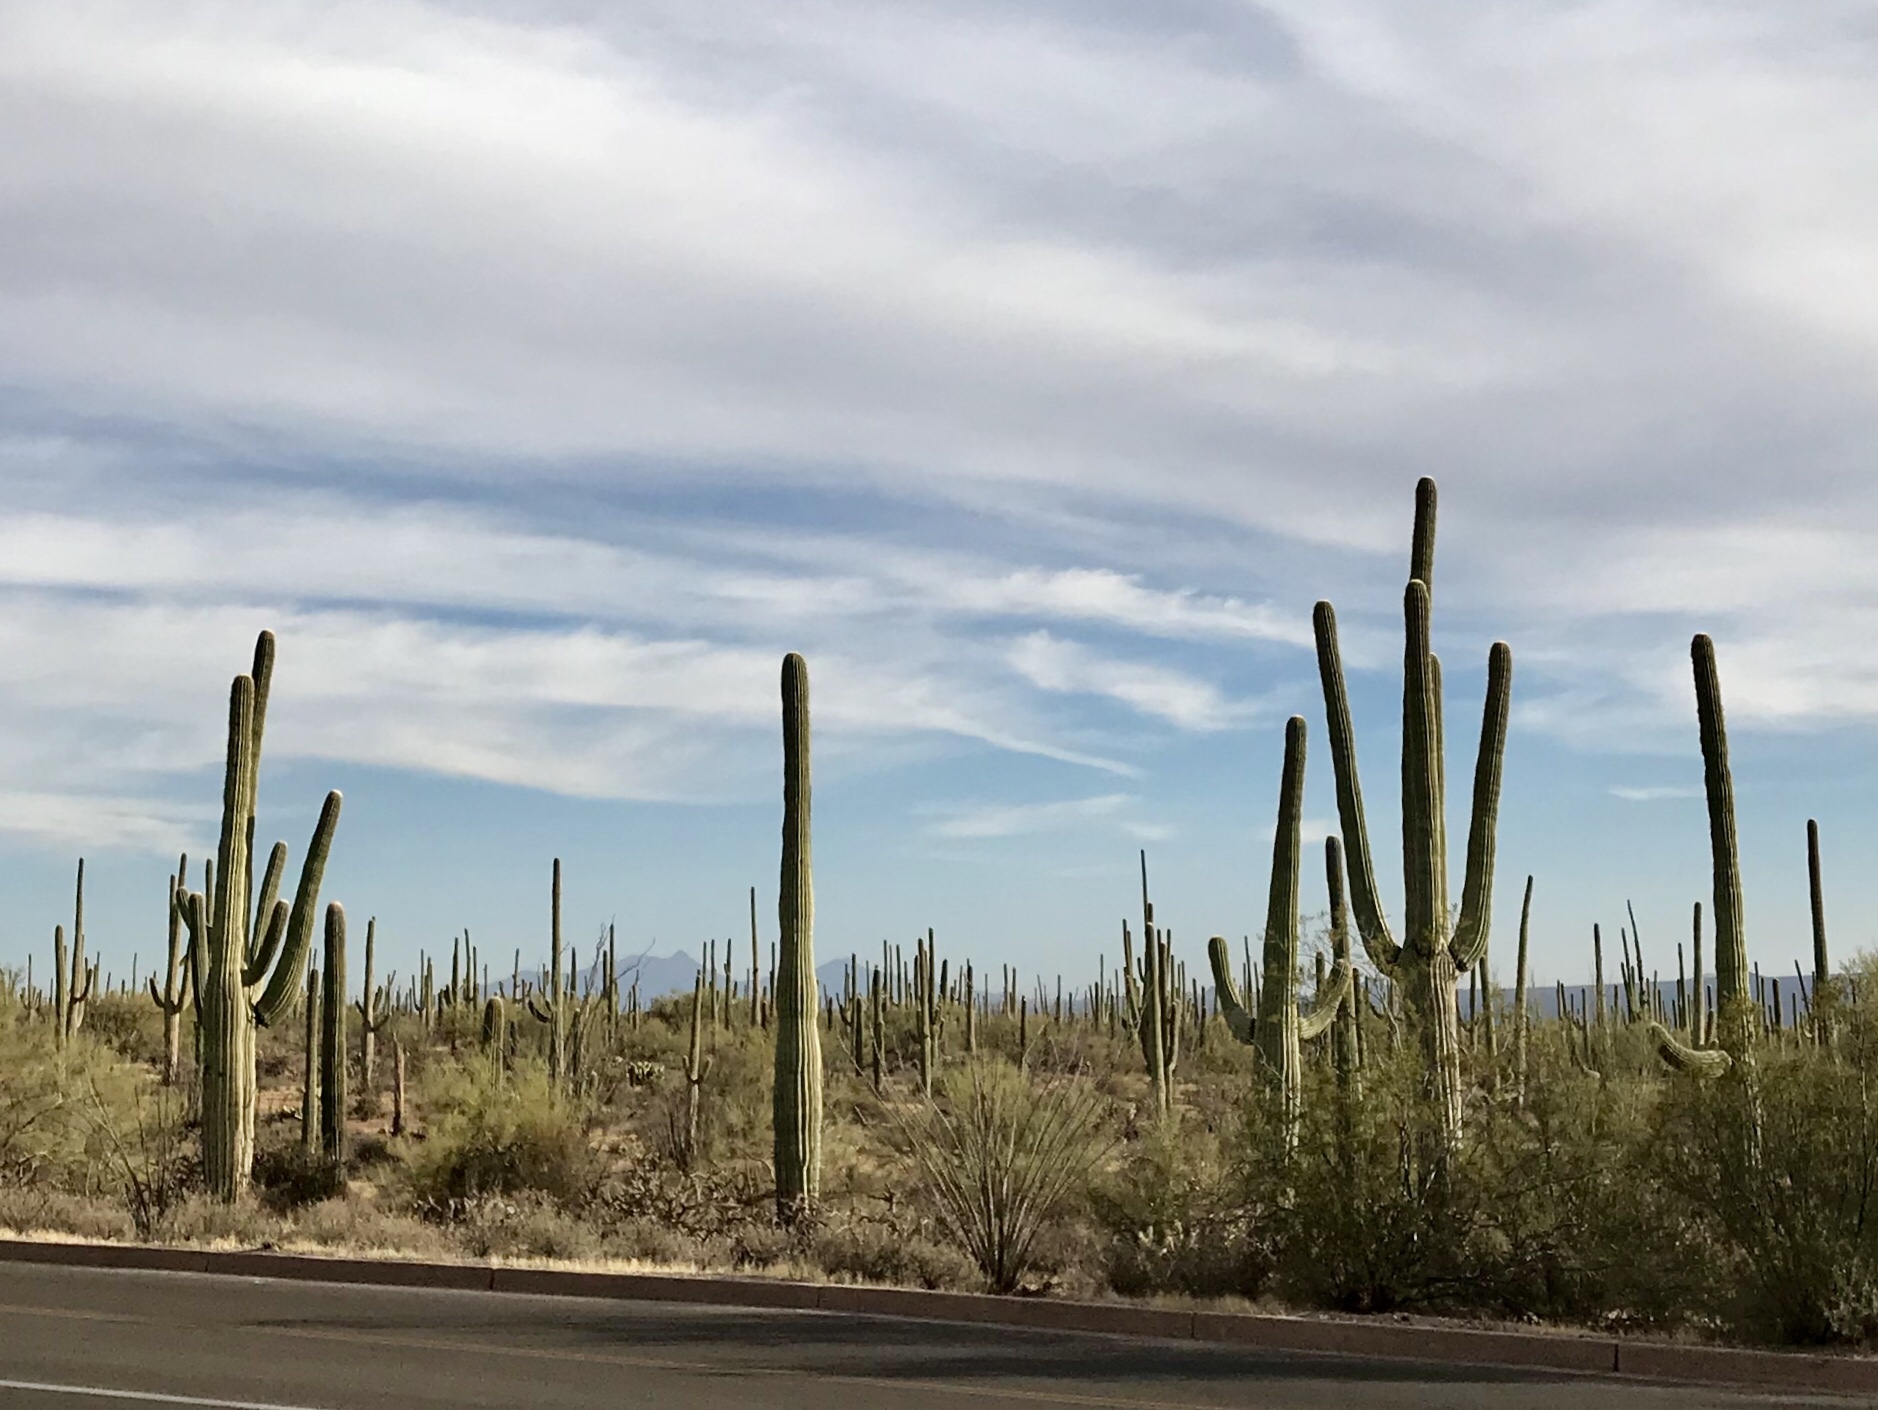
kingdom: Plantae
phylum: Tracheophyta
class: Magnoliopsida
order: Caryophyllales
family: Cactaceae
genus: Carnegiea
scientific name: Carnegiea gigantea
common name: Saguaro
